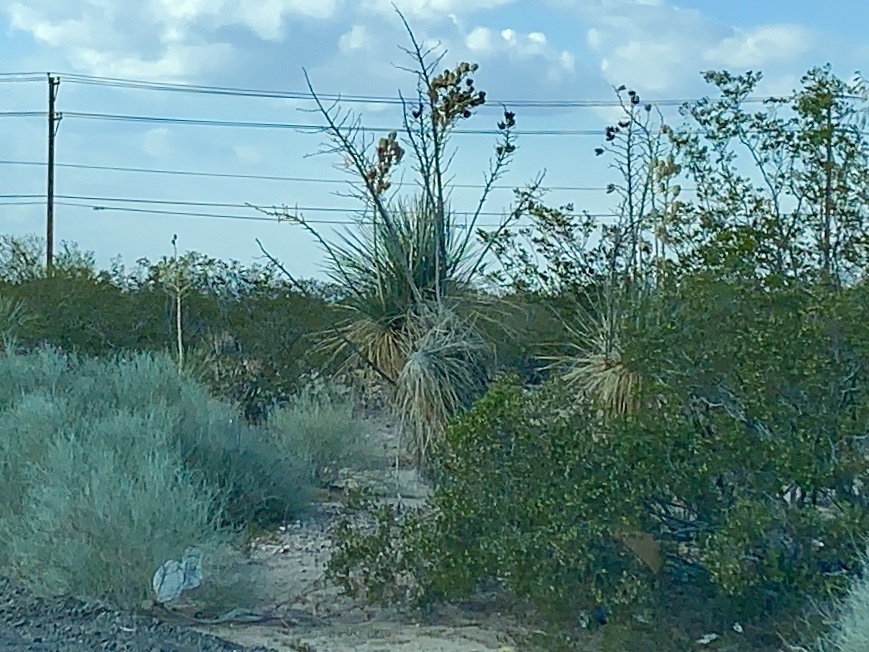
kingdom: Plantae
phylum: Tracheophyta
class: Liliopsida
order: Asparagales
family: Asparagaceae
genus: Yucca
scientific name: Yucca elata
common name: Palmella
